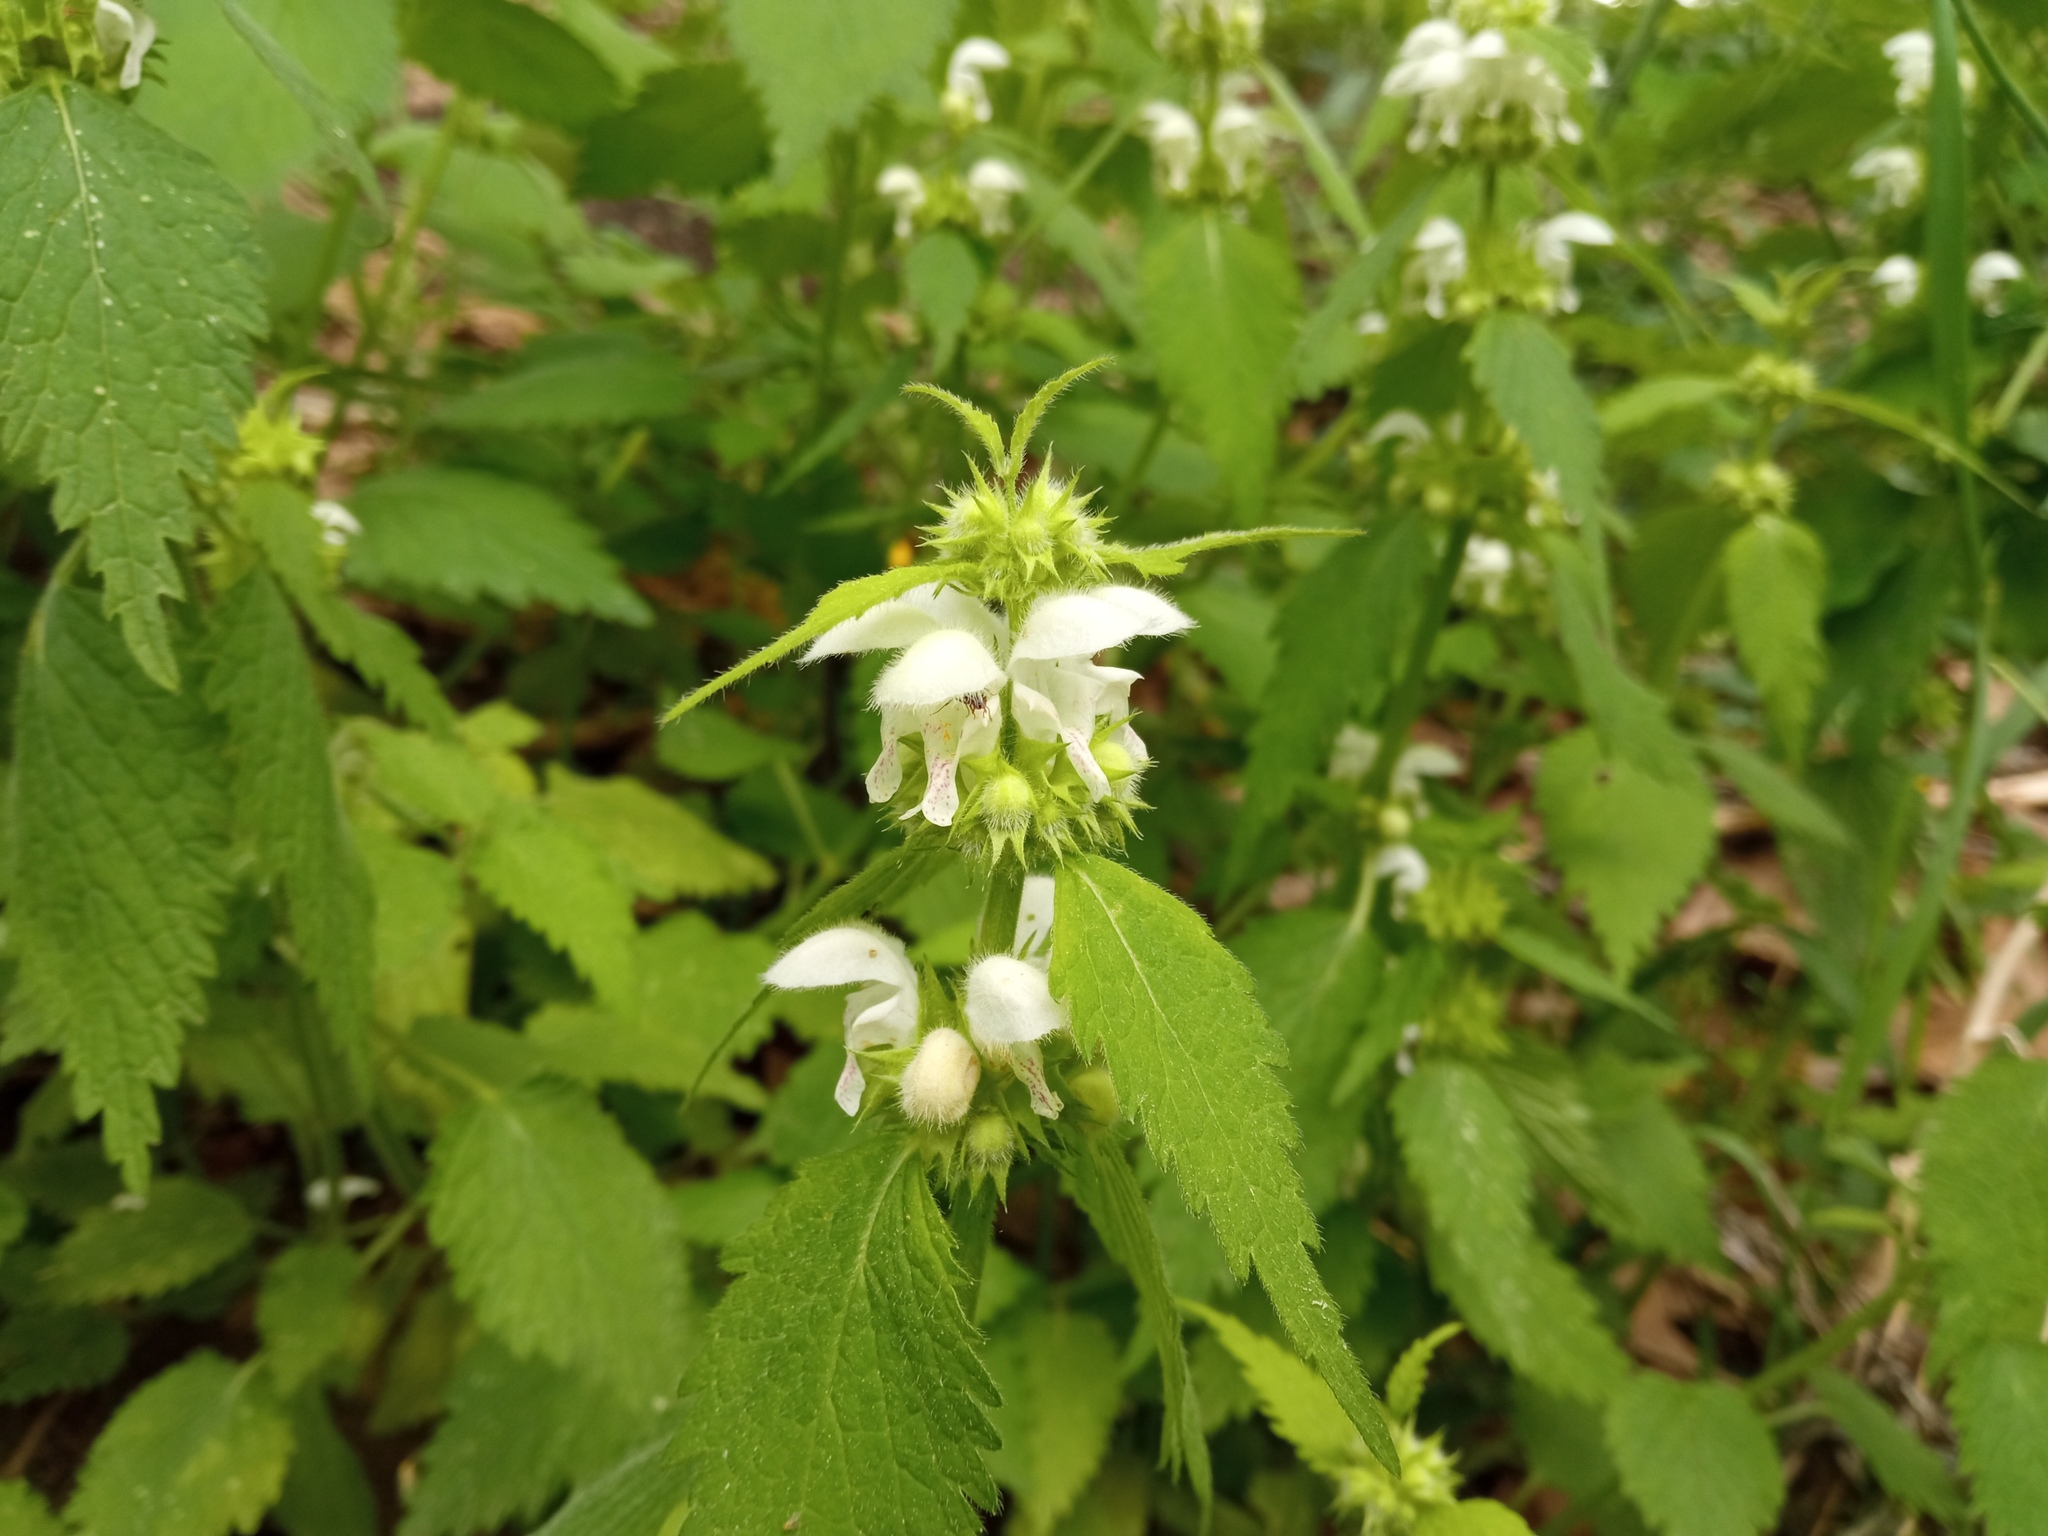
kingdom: Plantae
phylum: Tracheophyta
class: Magnoliopsida
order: Lamiales
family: Lamiaceae
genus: Lamium
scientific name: Lamium flexuosum
